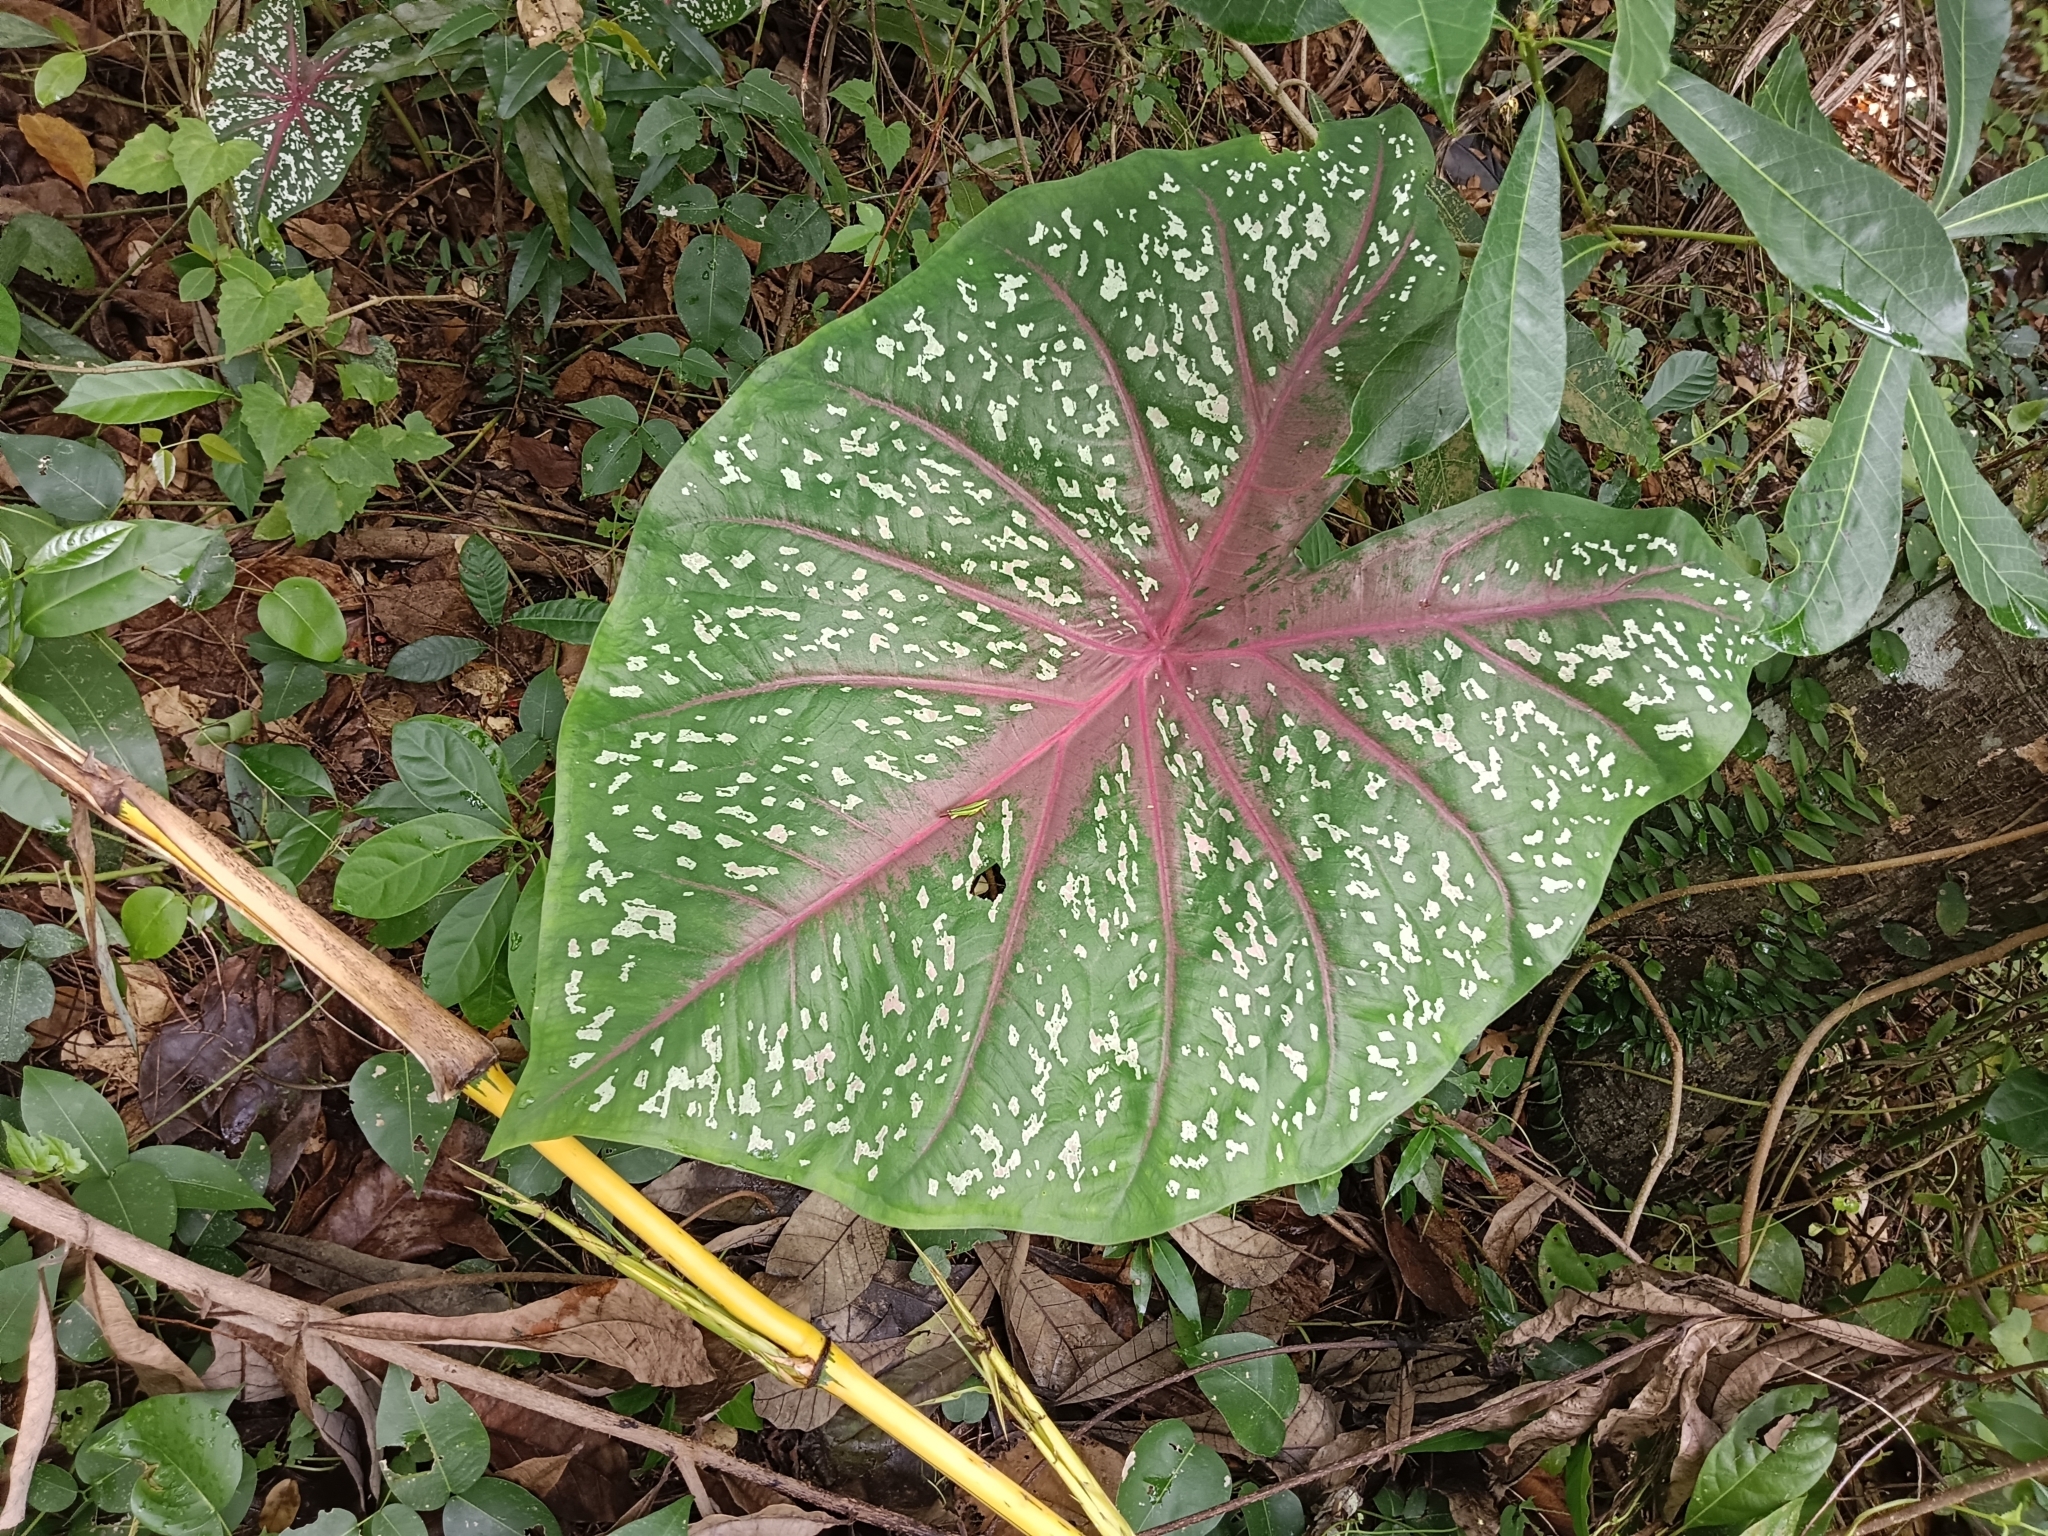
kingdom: Plantae
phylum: Tracheophyta
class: Liliopsida
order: Alismatales
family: Araceae
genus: Caladium
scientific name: Caladium bicolor
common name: Artist's pallet
